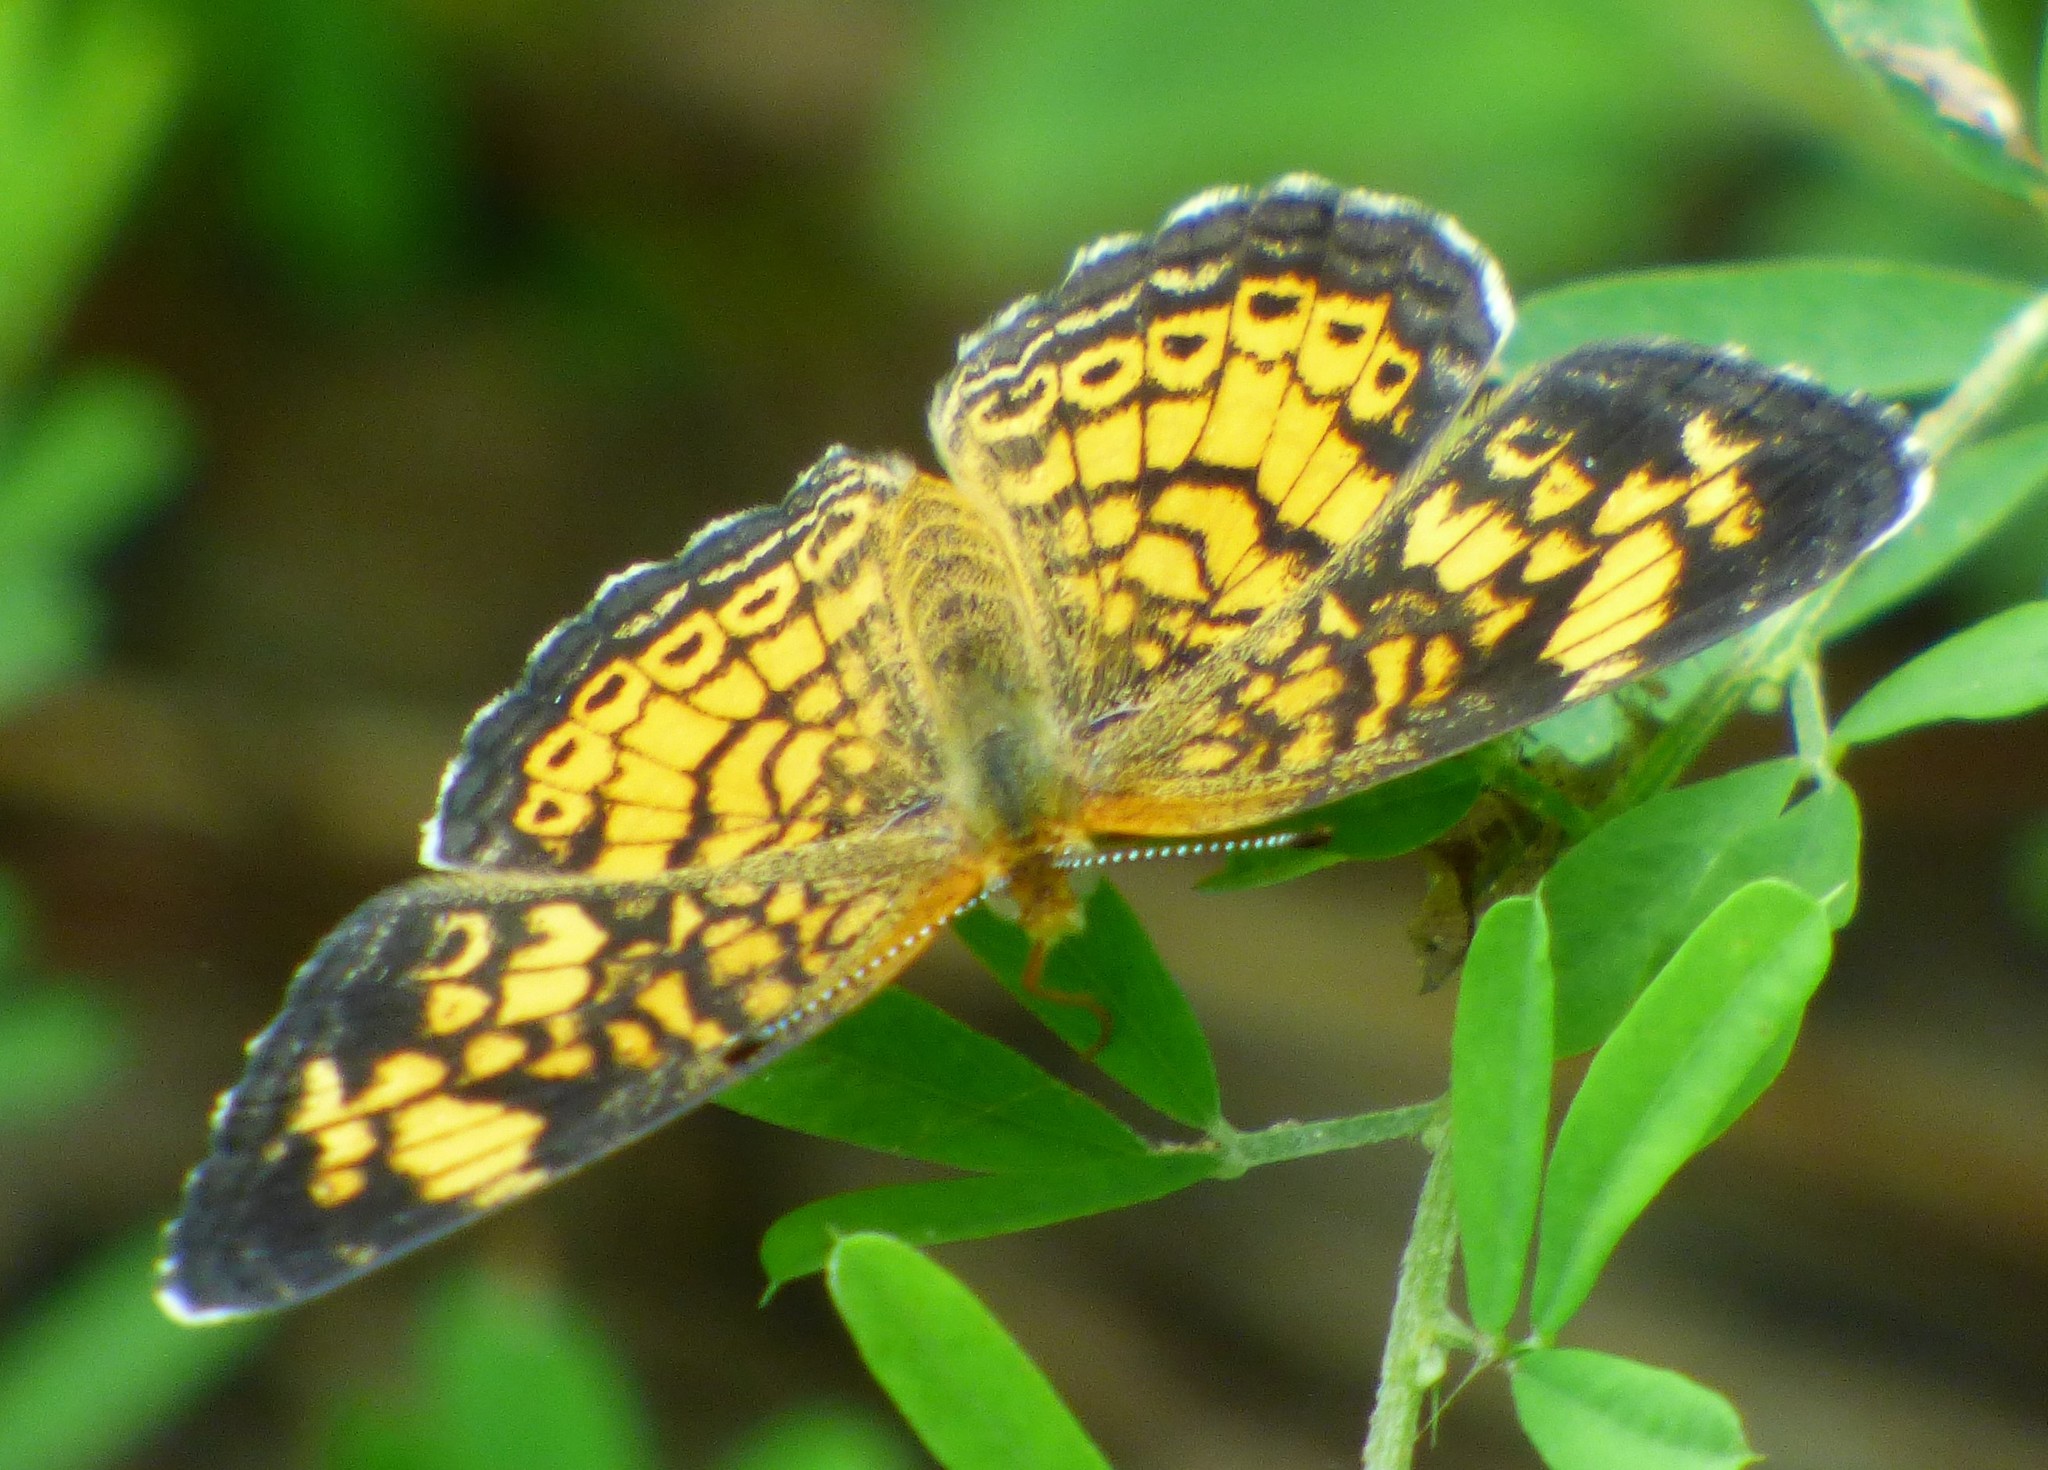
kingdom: Animalia
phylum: Arthropoda
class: Insecta
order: Lepidoptera
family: Nymphalidae
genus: Phyciodes
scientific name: Phyciodes tharos
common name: Pearl crescent
